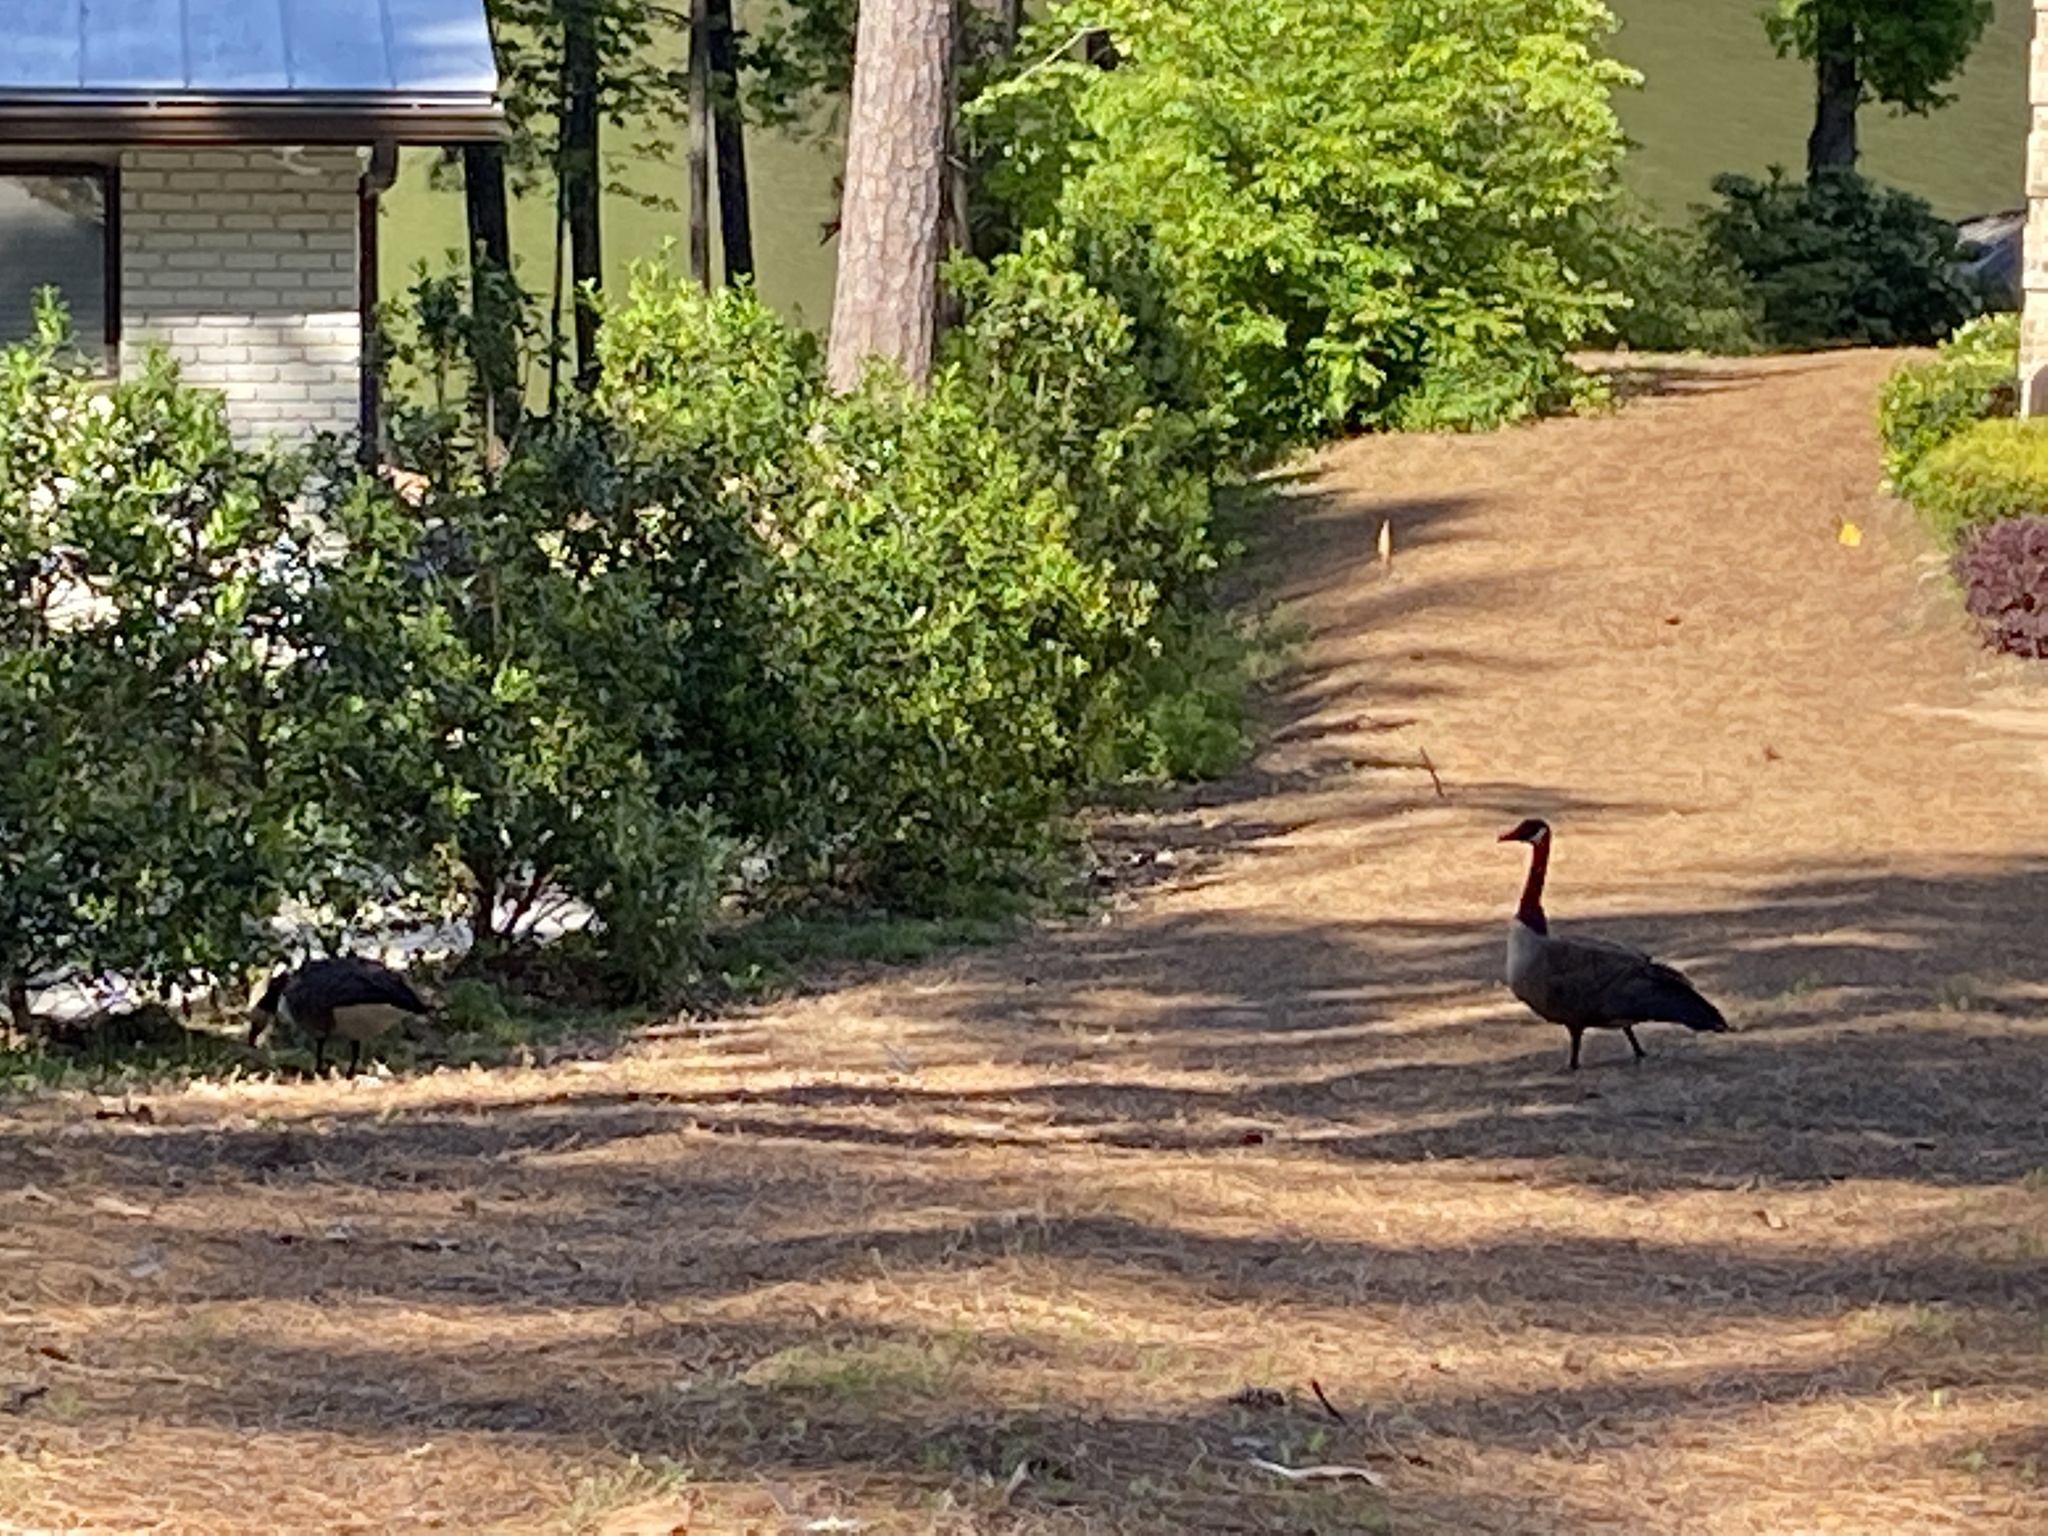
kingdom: Animalia
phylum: Chordata
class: Aves
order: Anseriformes
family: Anatidae
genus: Branta
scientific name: Branta canadensis
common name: Canada goose
